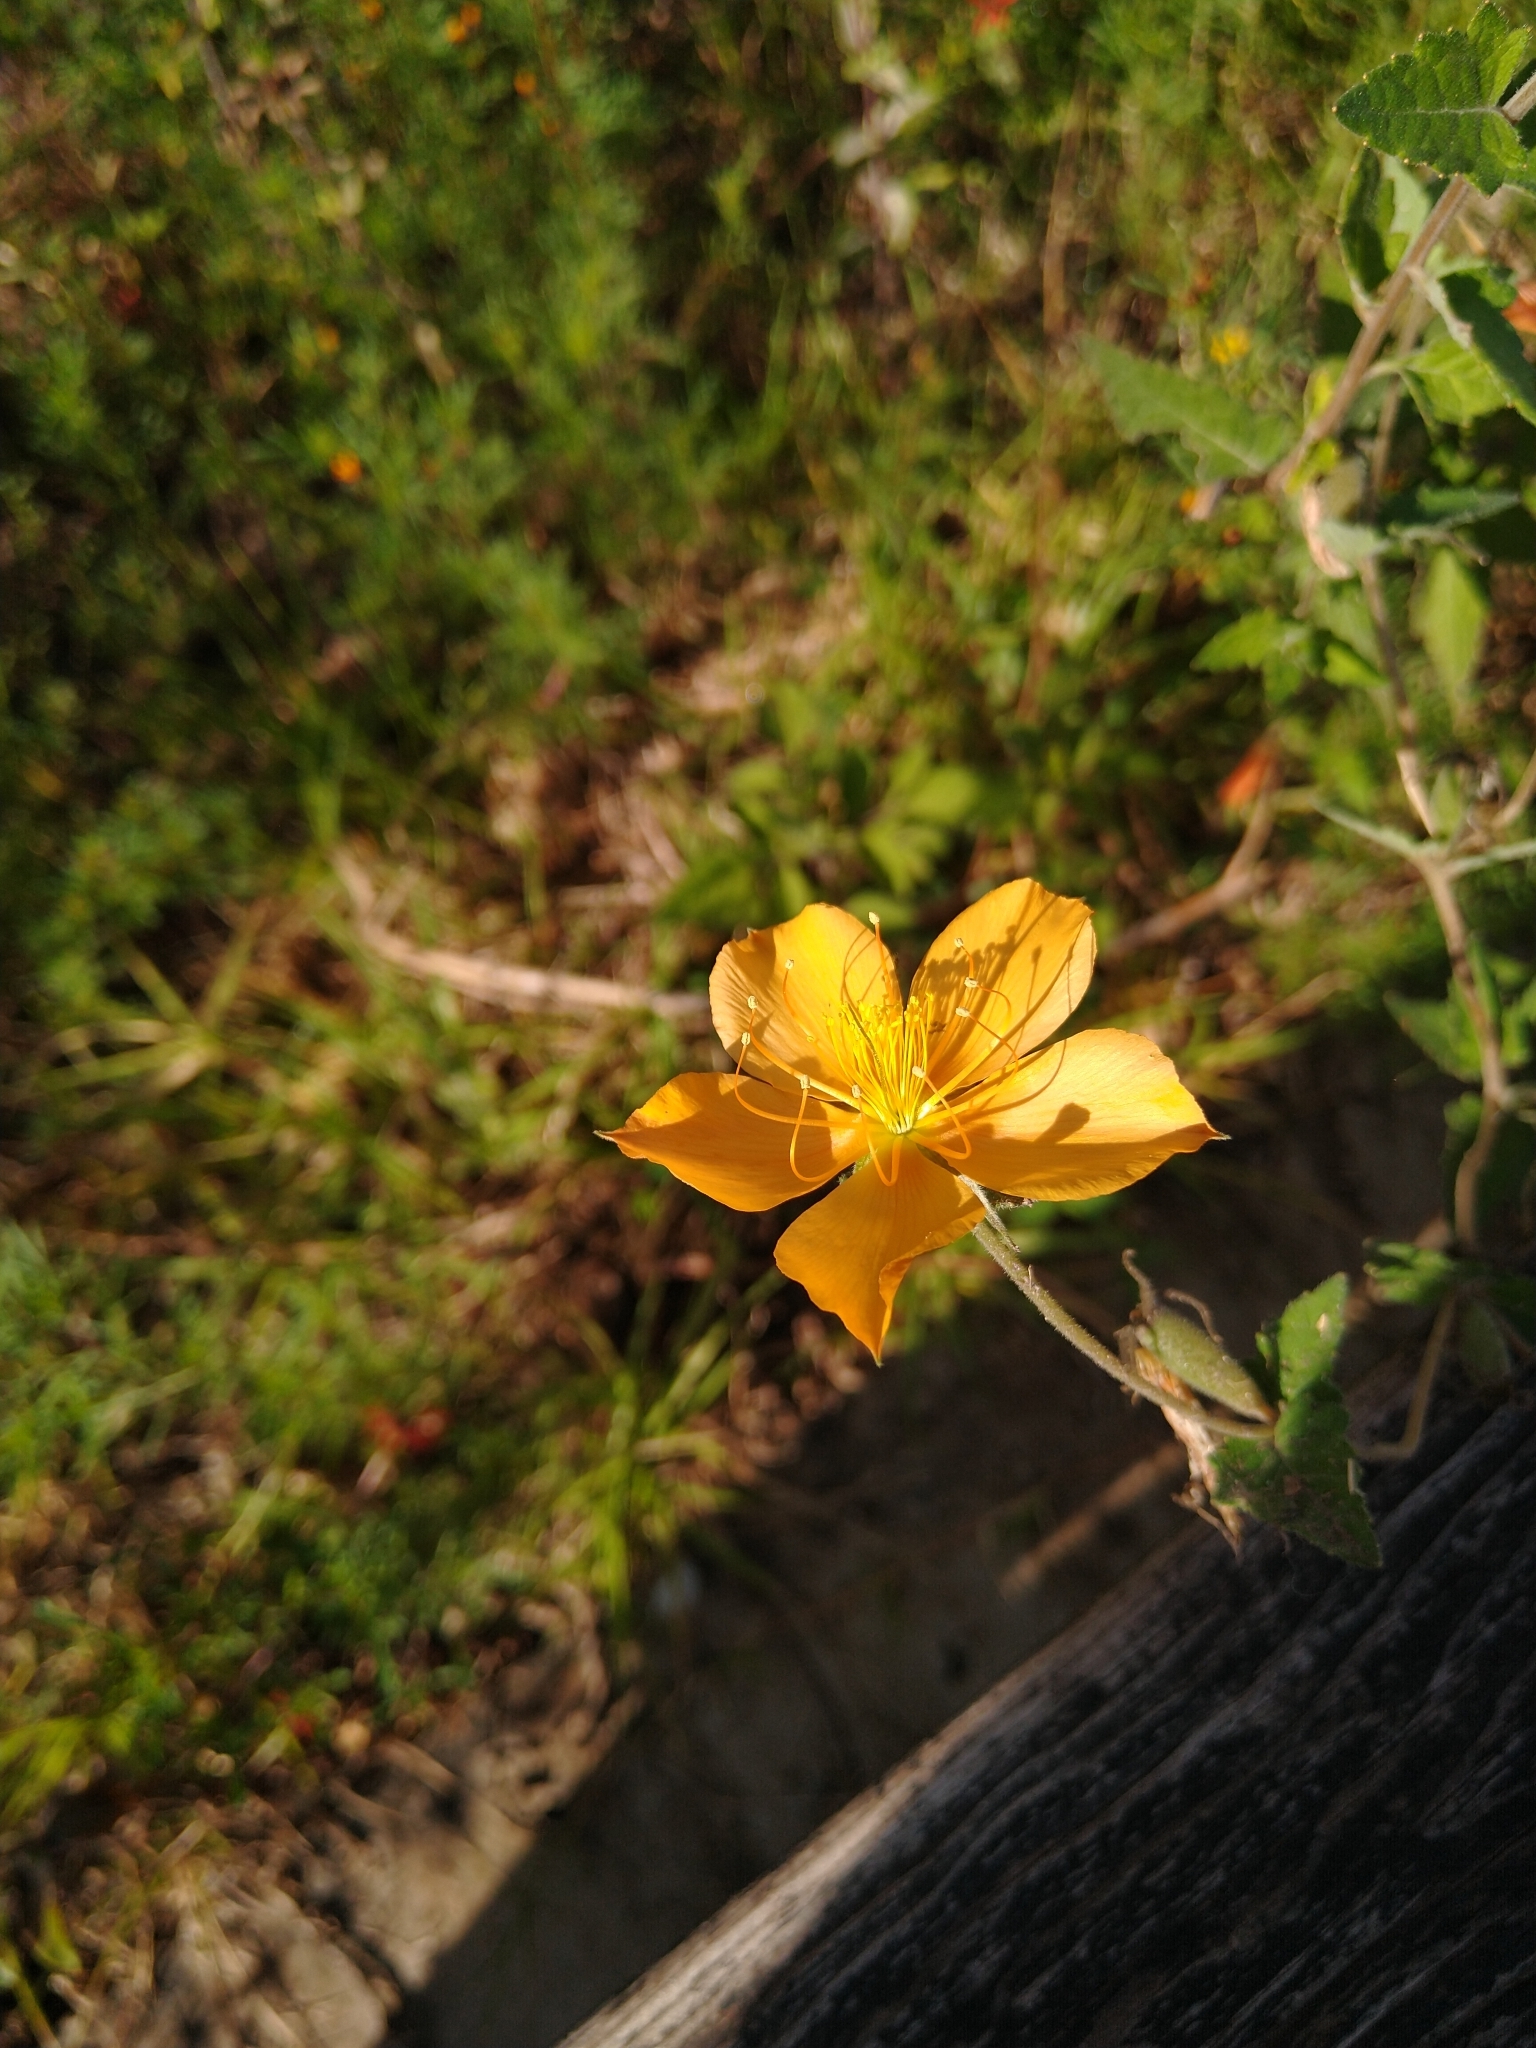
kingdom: Plantae
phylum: Tracheophyta
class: Magnoliopsida
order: Cornales
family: Loasaceae
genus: Mentzelia
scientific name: Mentzelia hispida
